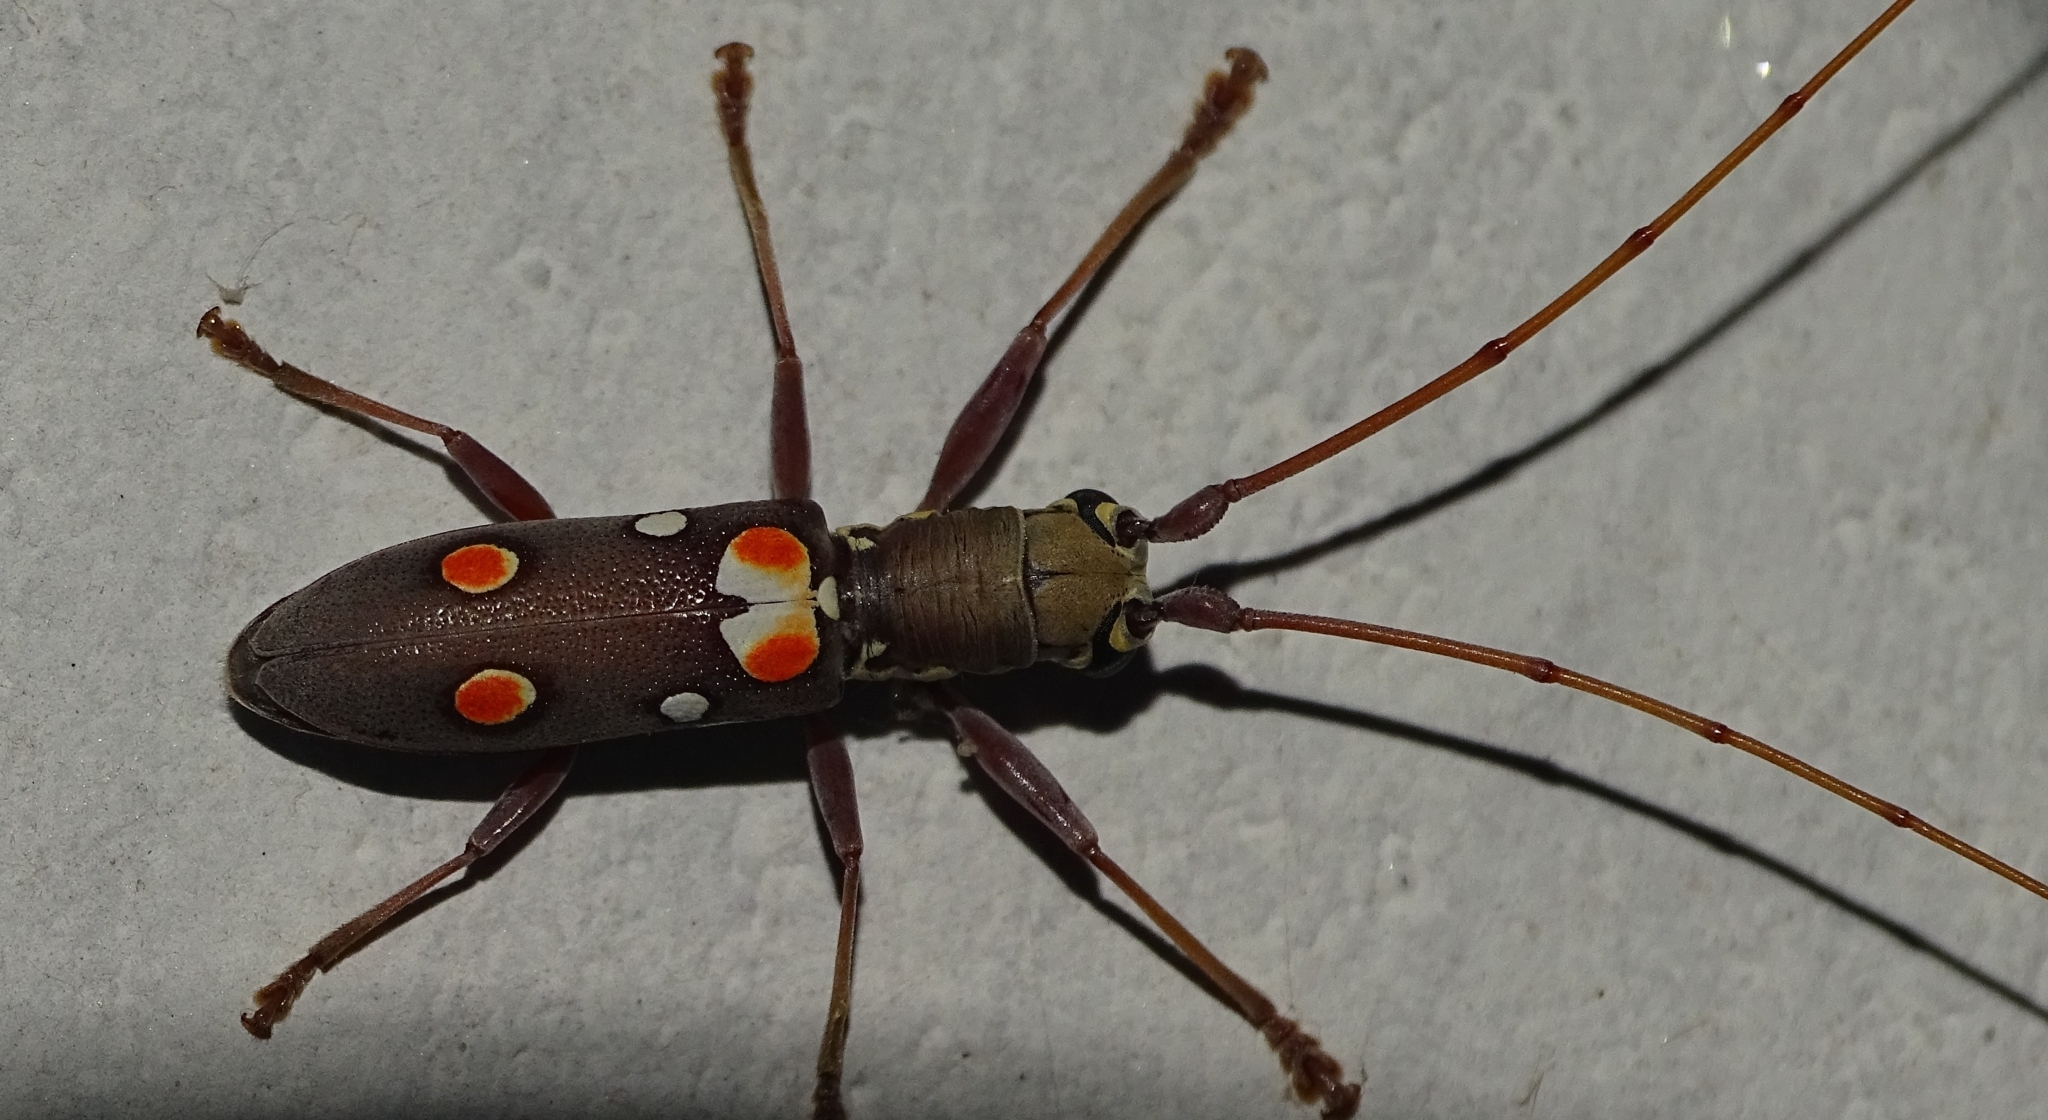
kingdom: Animalia
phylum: Arthropoda
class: Insecta
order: Coleoptera
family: Cerambycidae
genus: Olenecamptus
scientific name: Olenecamptus bilobus
